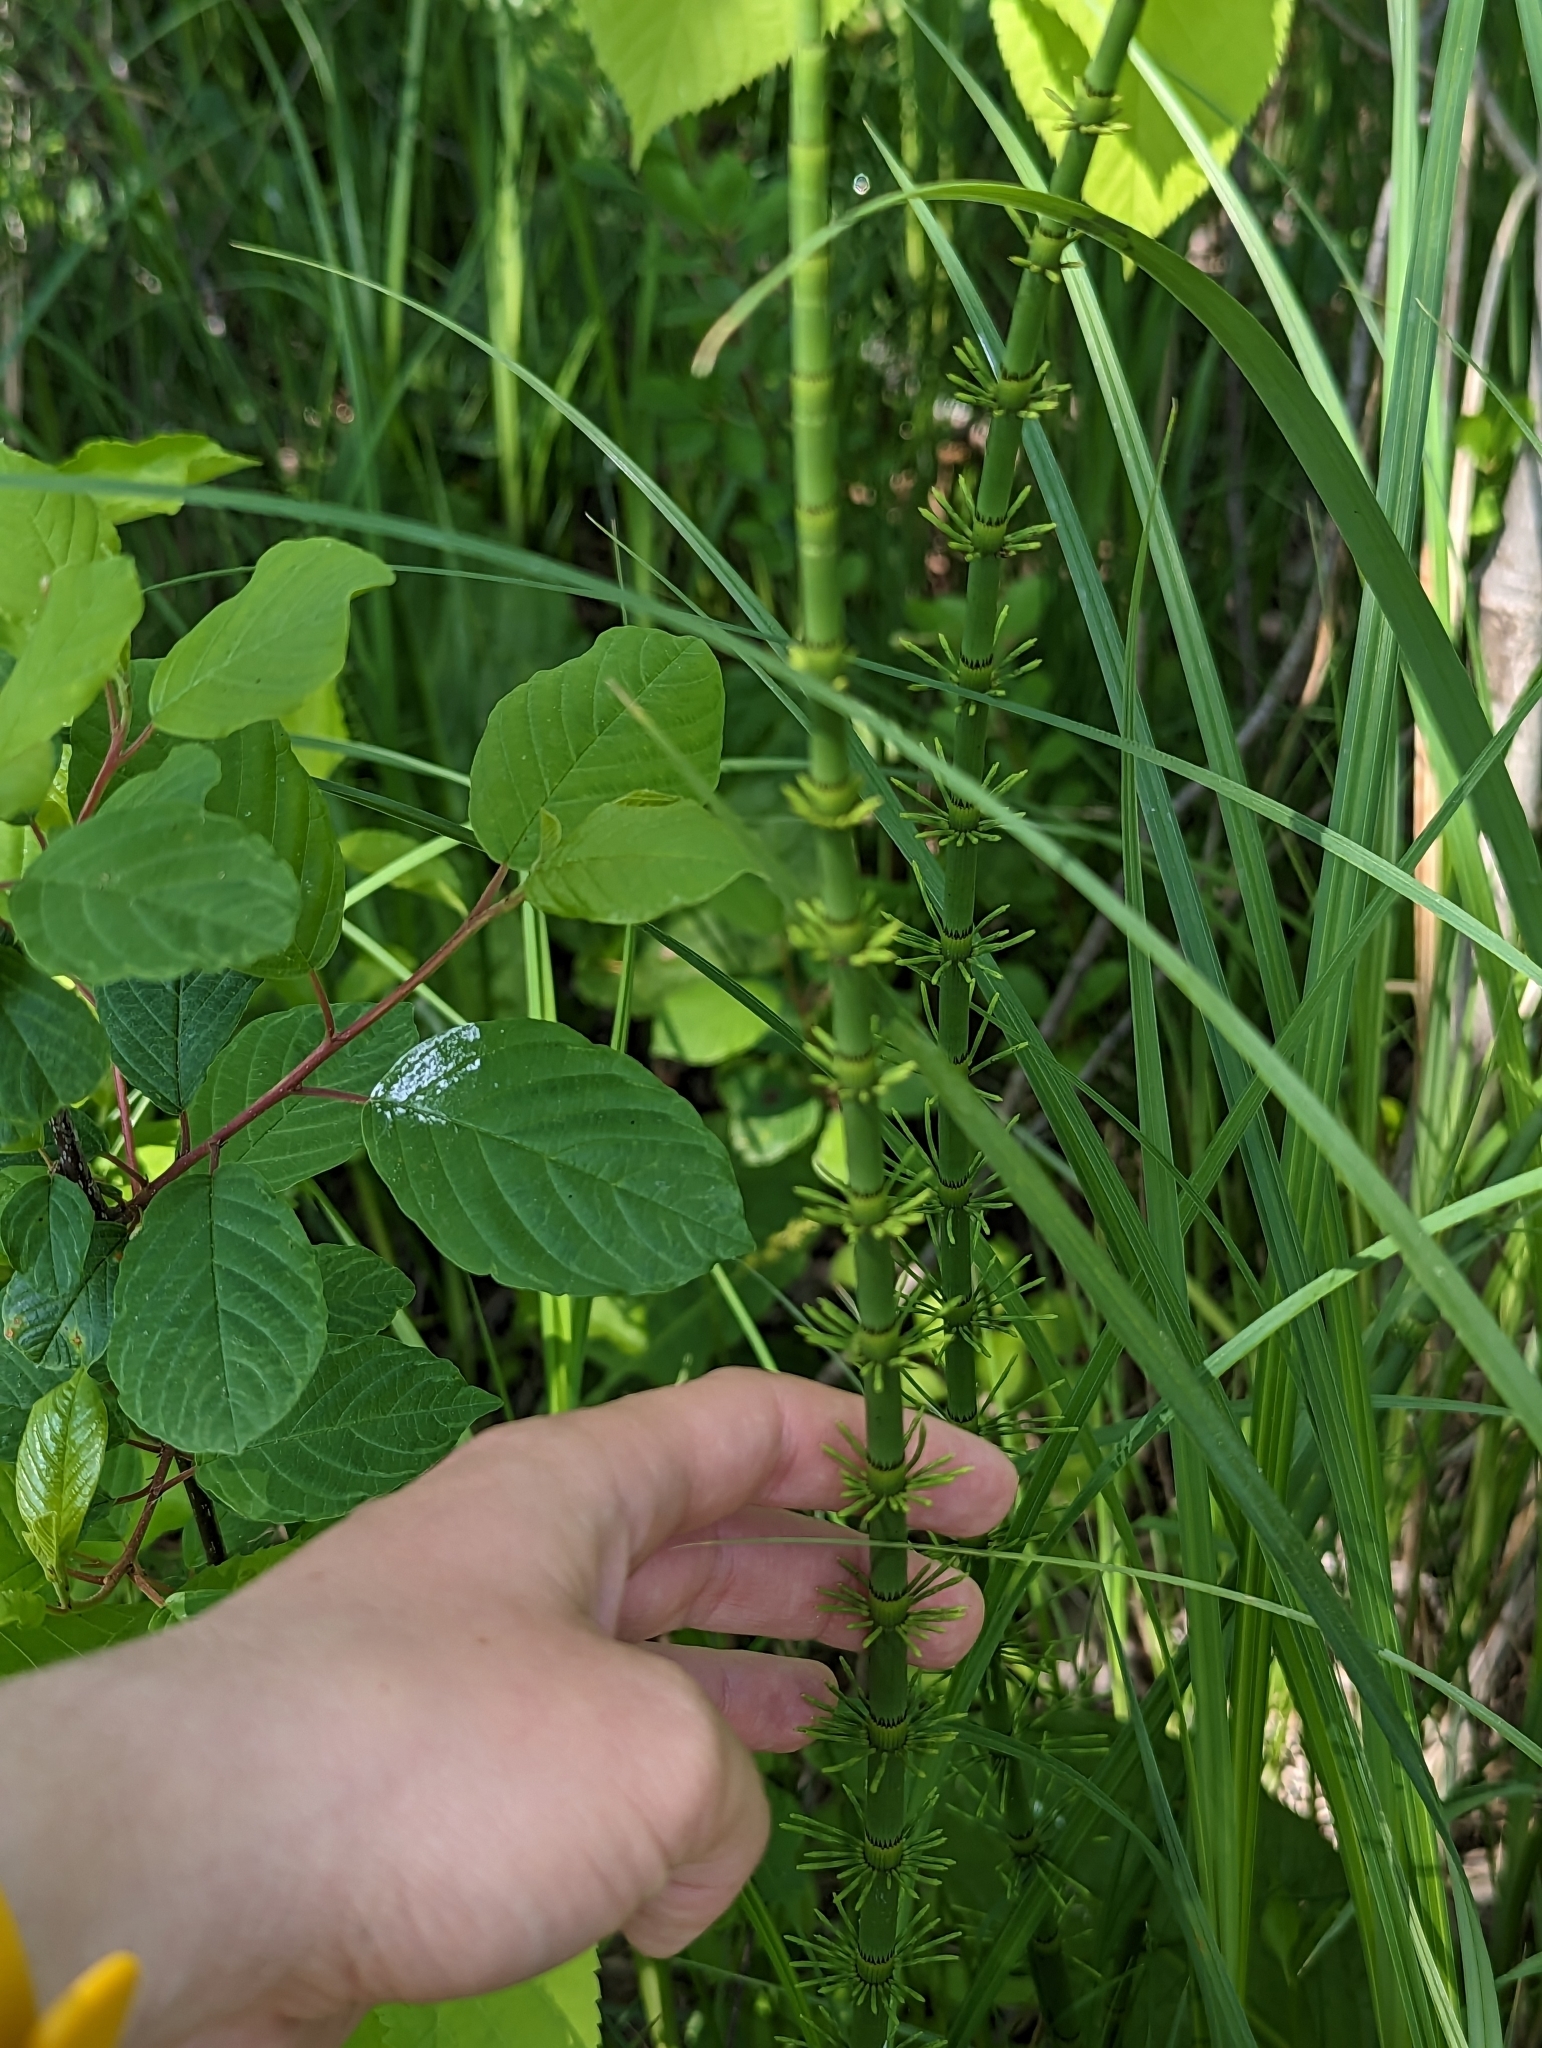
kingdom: Plantae
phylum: Tracheophyta
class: Polypodiopsida
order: Equisetales
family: Equisetaceae
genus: Equisetum
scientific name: Equisetum fluviatile
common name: Water horsetail
